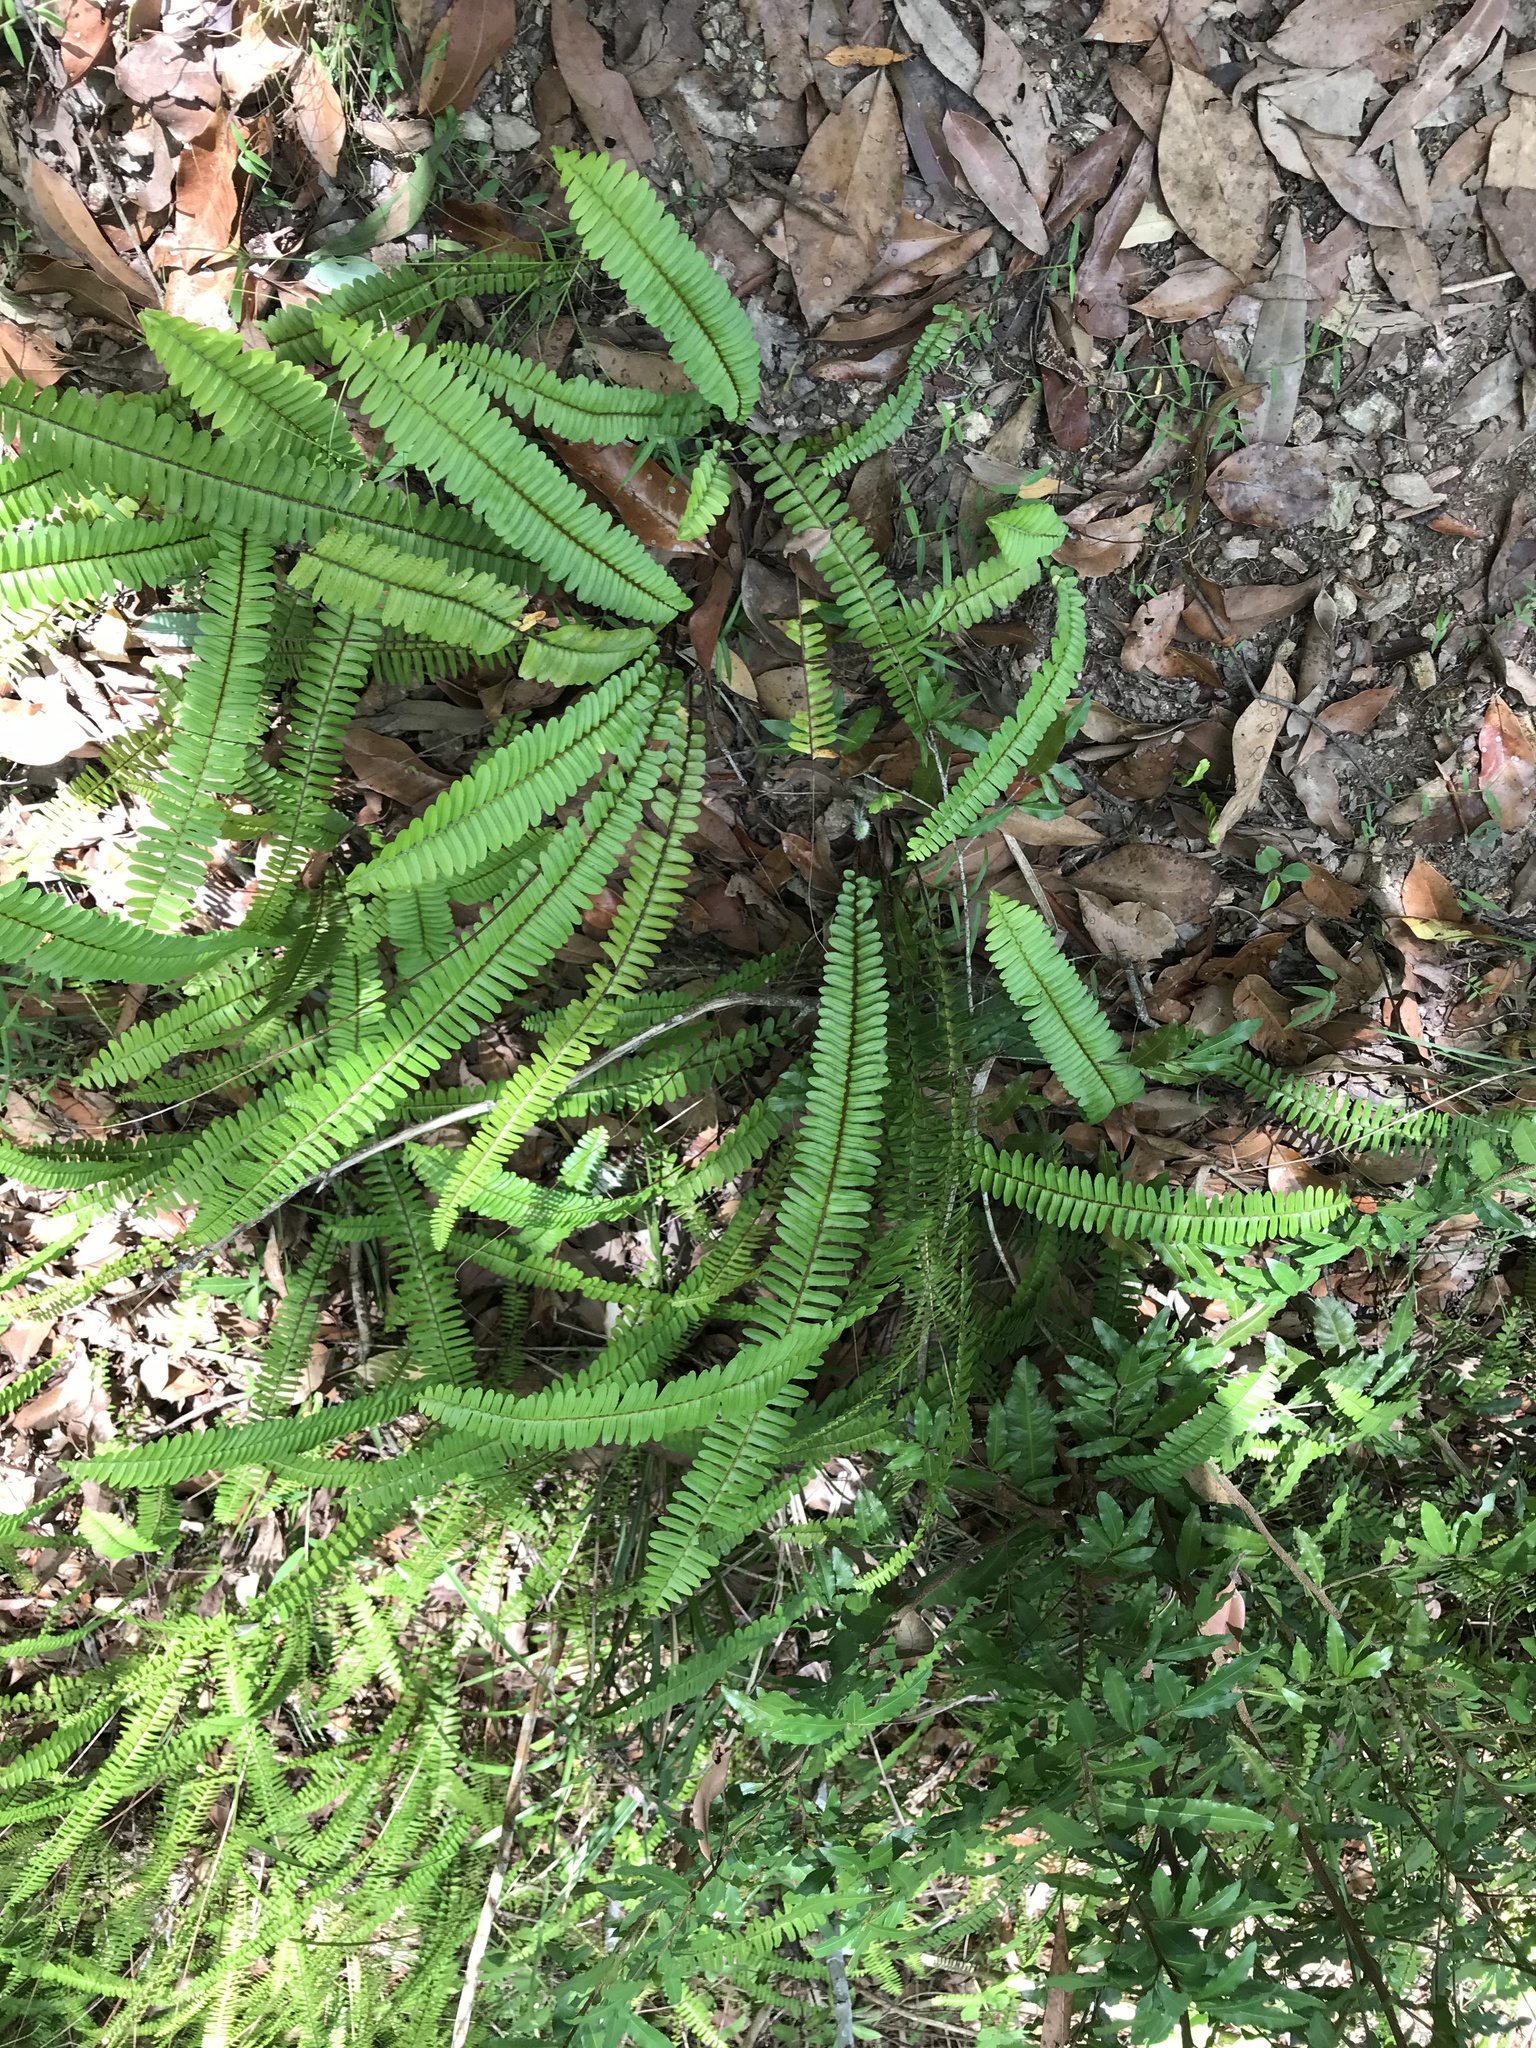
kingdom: Plantae
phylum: Tracheophyta
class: Polypodiopsida
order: Polypodiales
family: Nephrolepidaceae
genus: Nephrolepis
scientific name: Nephrolepis cordifolia
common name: Narrow swordfern
